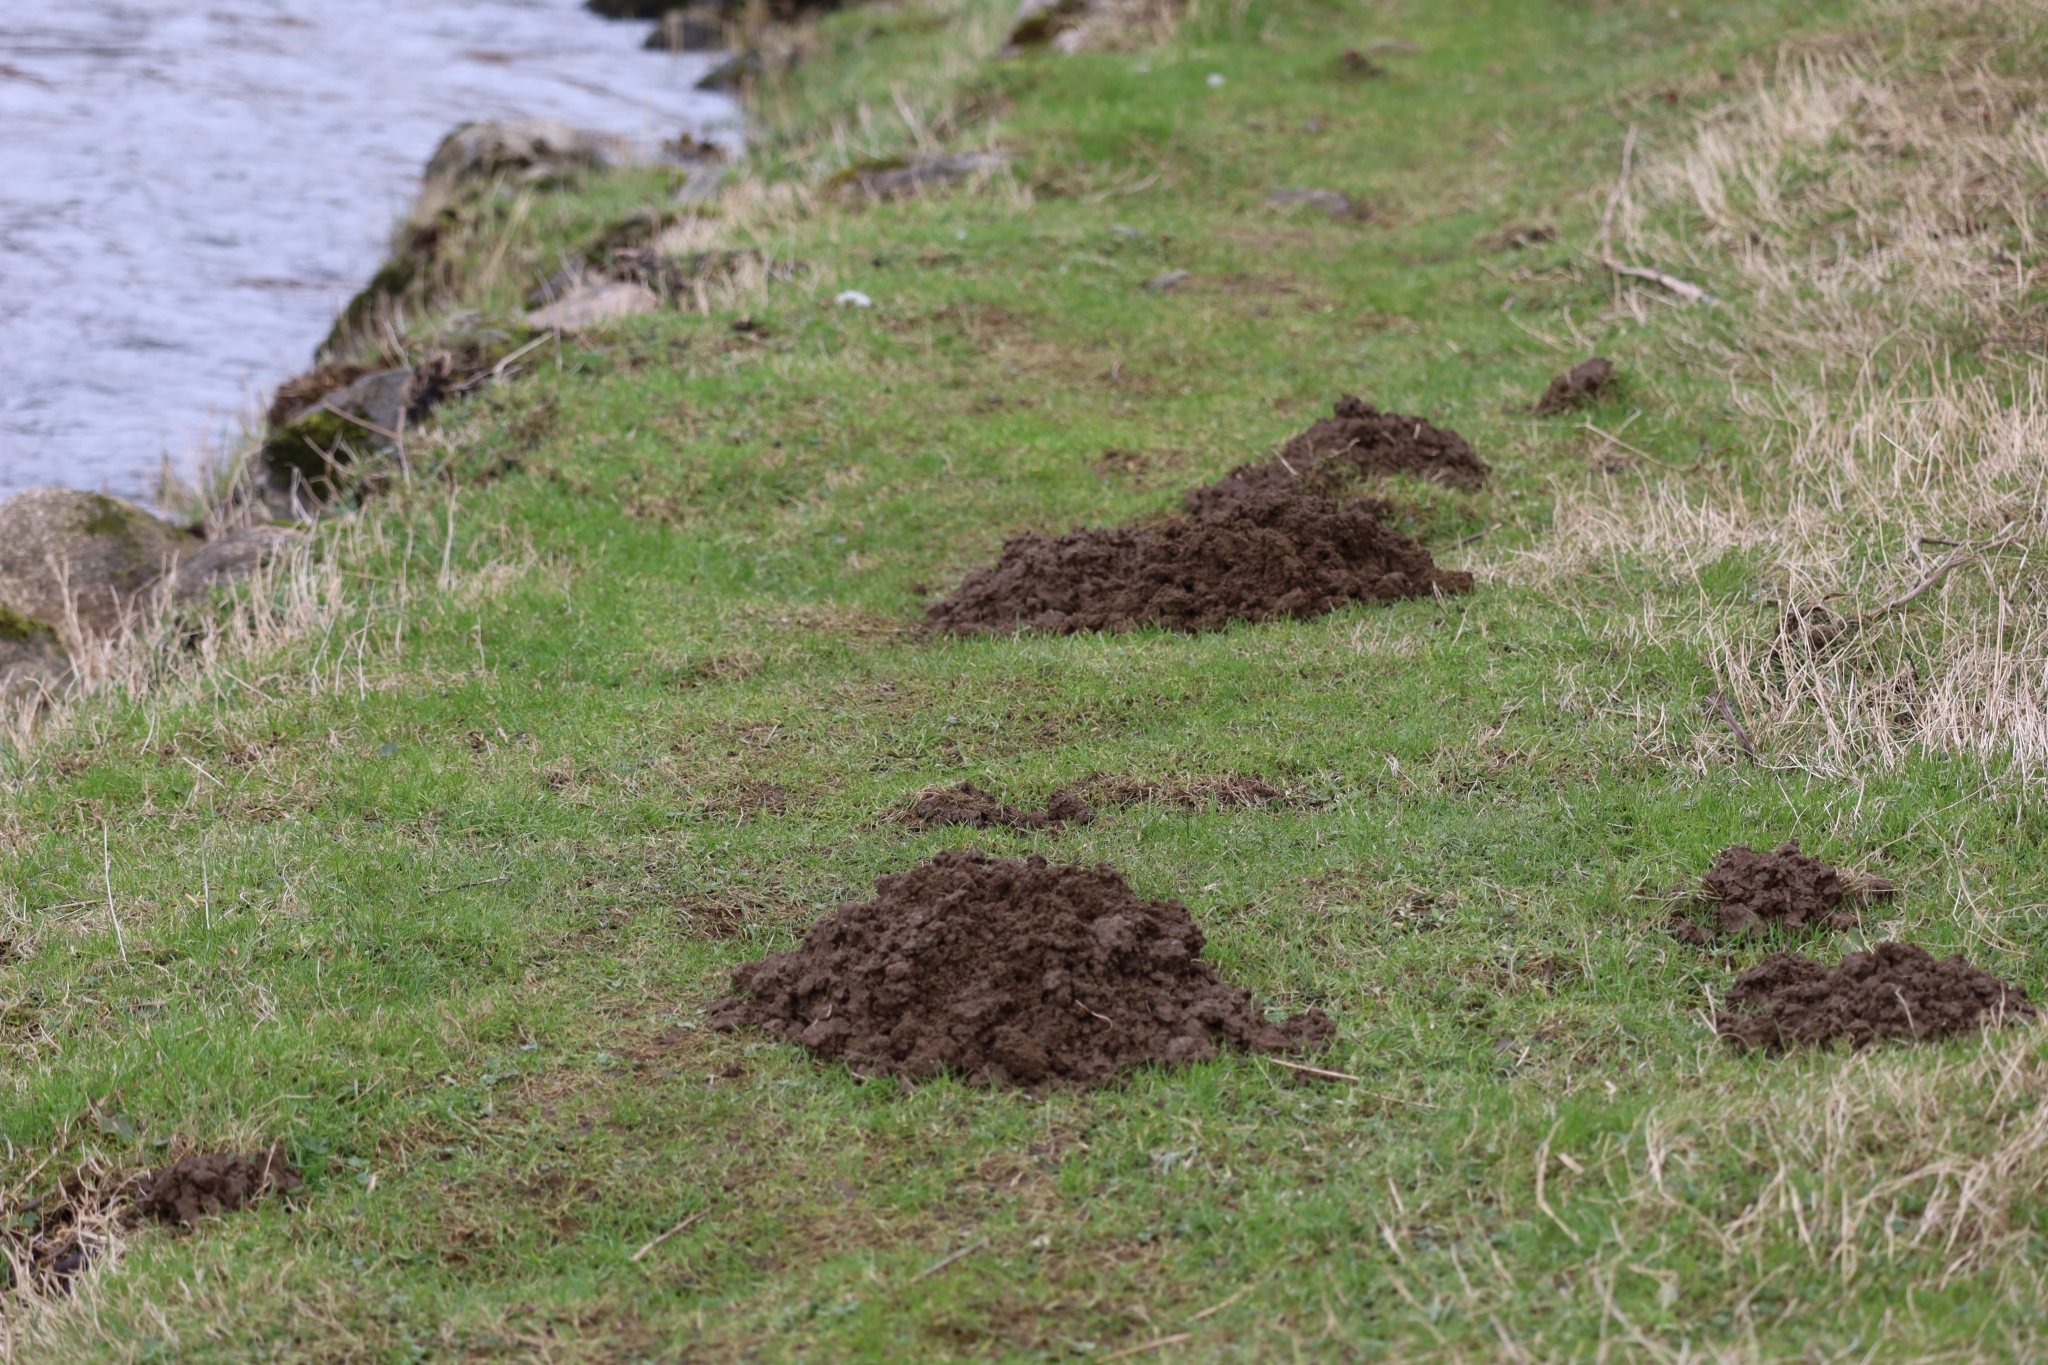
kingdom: Animalia
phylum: Chordata
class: Mammalia
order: Soricomorpha
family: Talpidae
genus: Talpa
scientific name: Talpa europaea
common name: European mole
